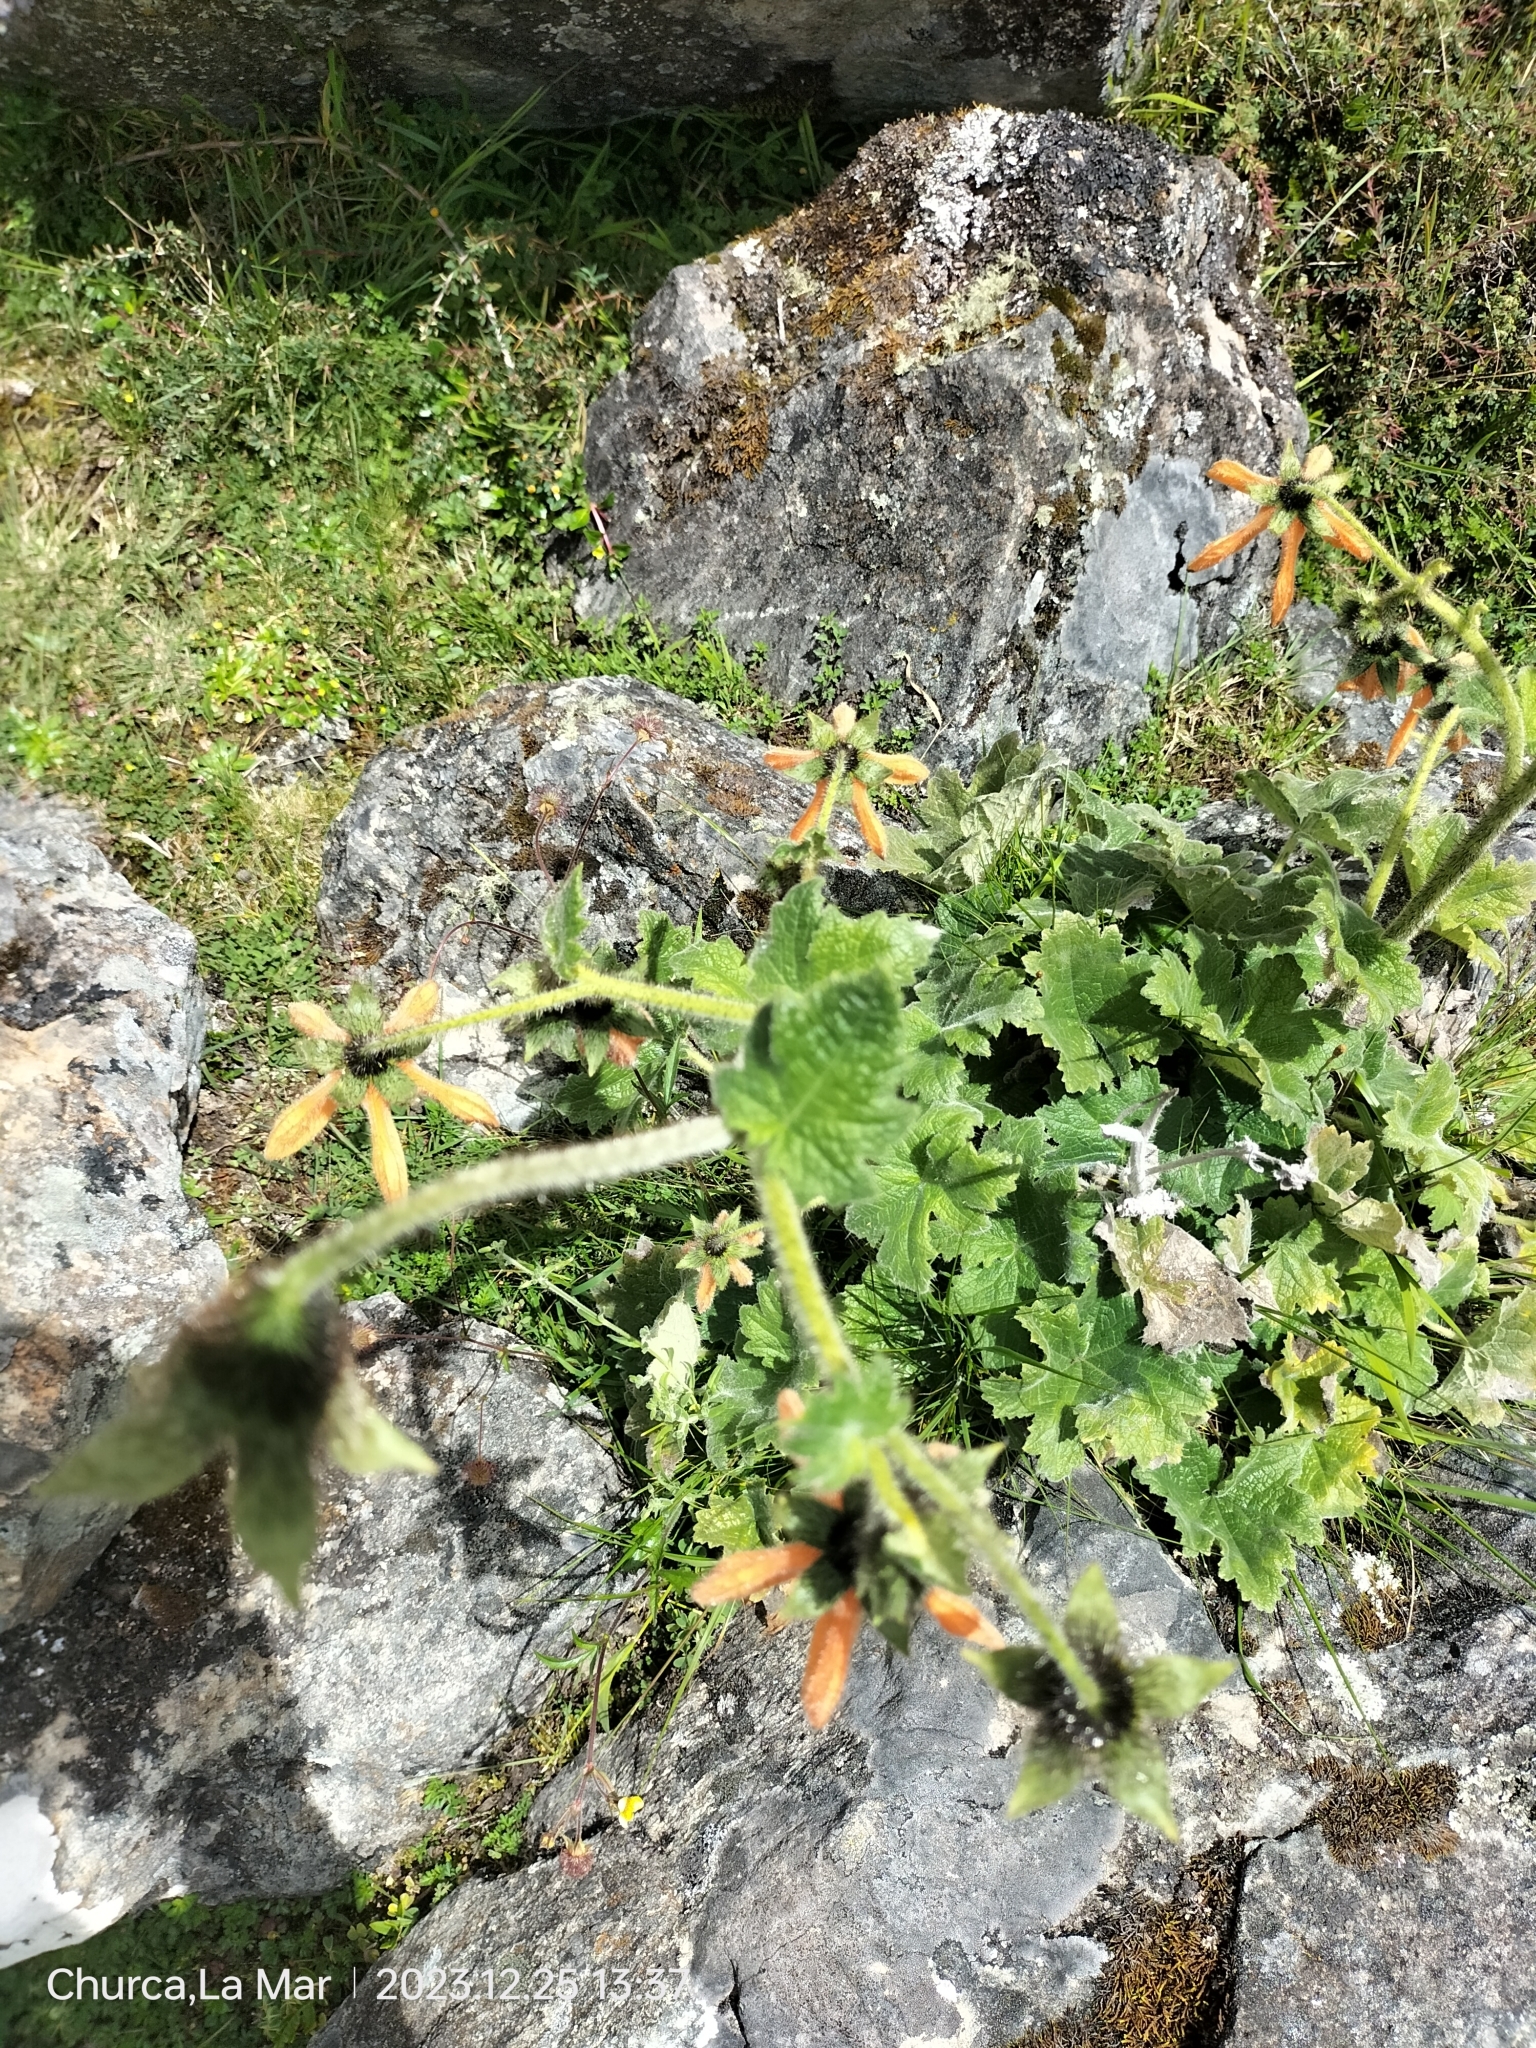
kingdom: Plantae
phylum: Tracheophyta
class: Magnoliopsida
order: Cornales
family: Loasaceae
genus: Nasa
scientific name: Nasa ranunculifolia
